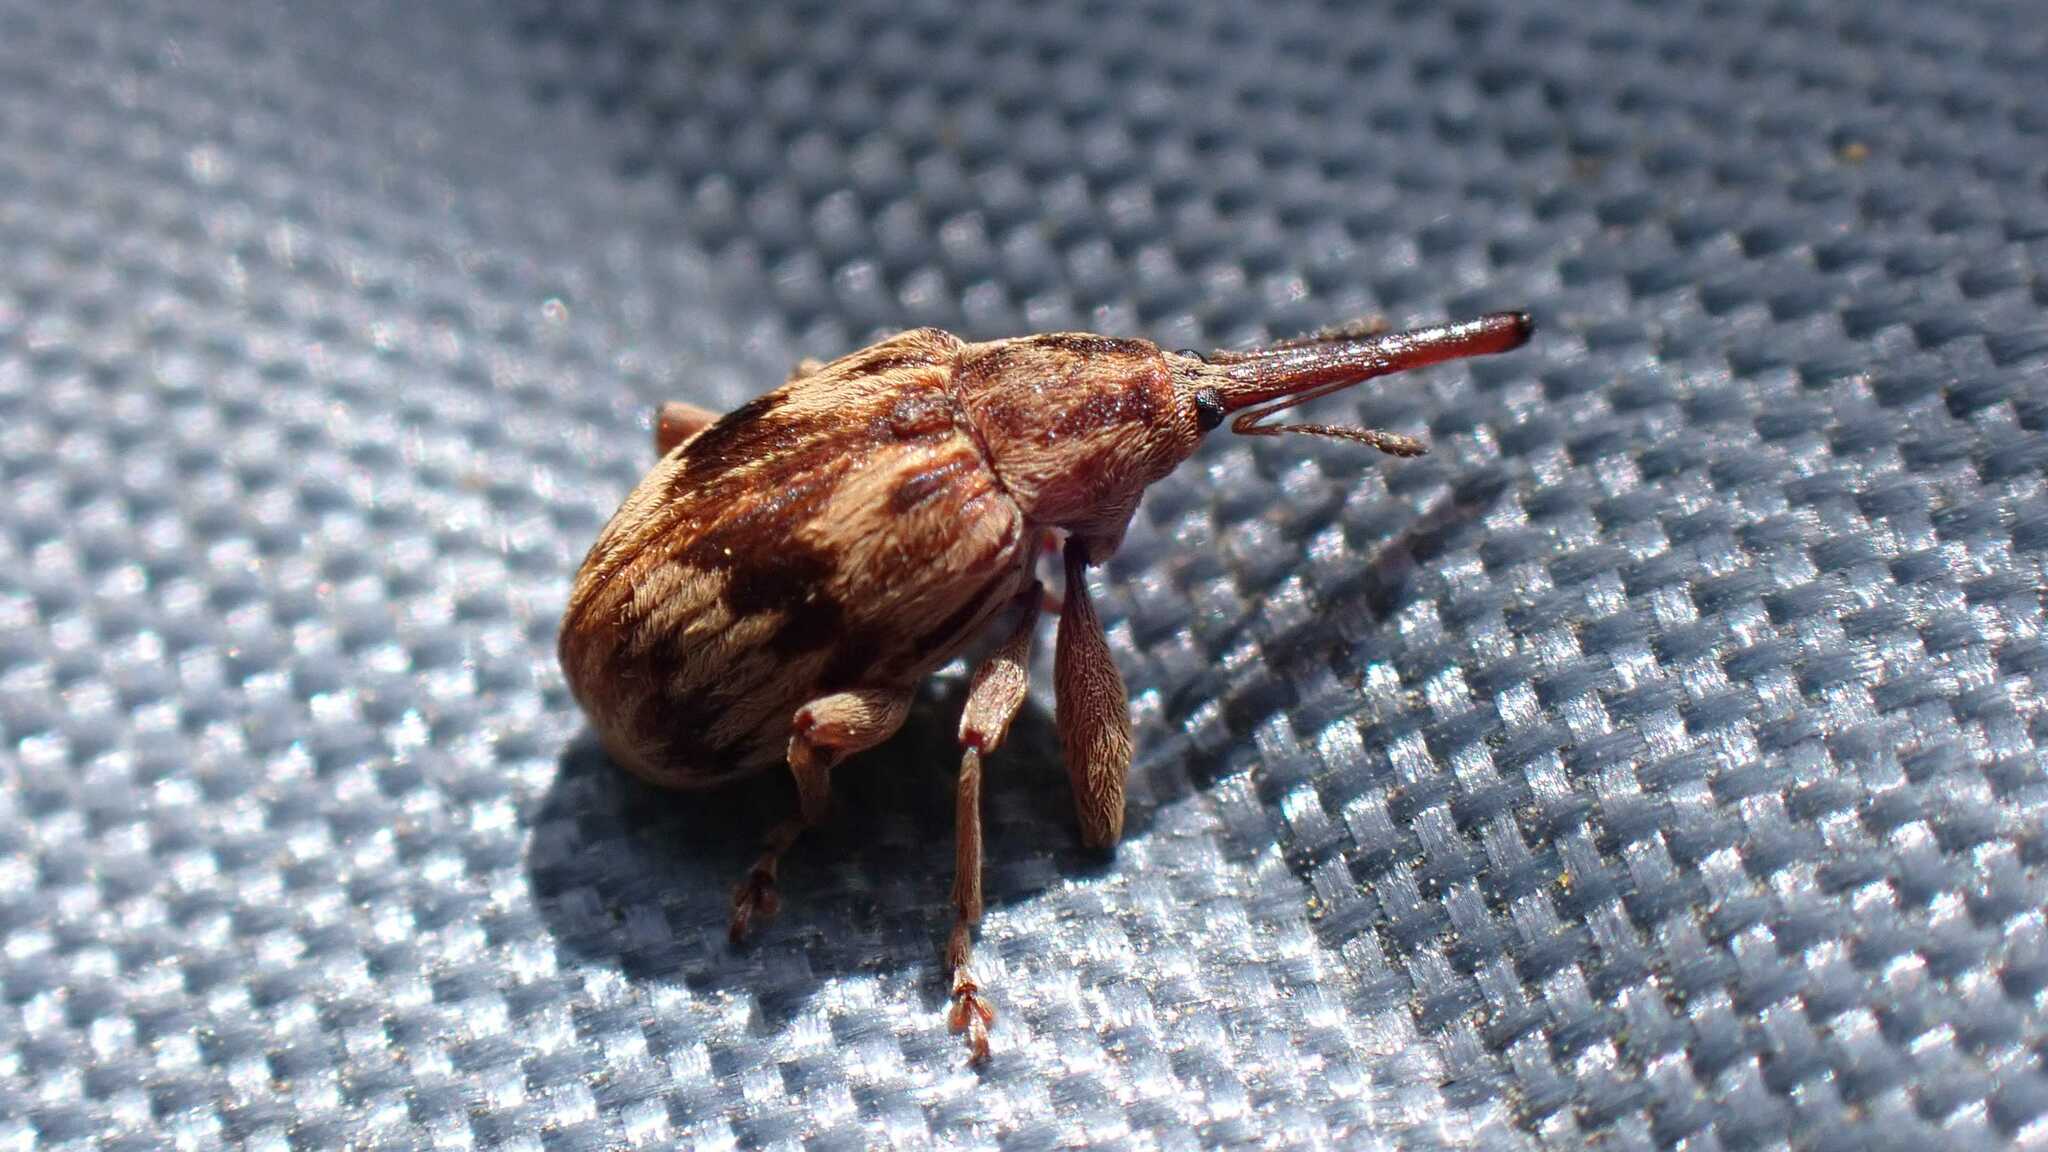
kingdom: Animalia
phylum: Arthropoda
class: Insecta
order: Coleoptera
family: Curculionidae
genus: Anthonomus
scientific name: Anthonomus rectirostris
